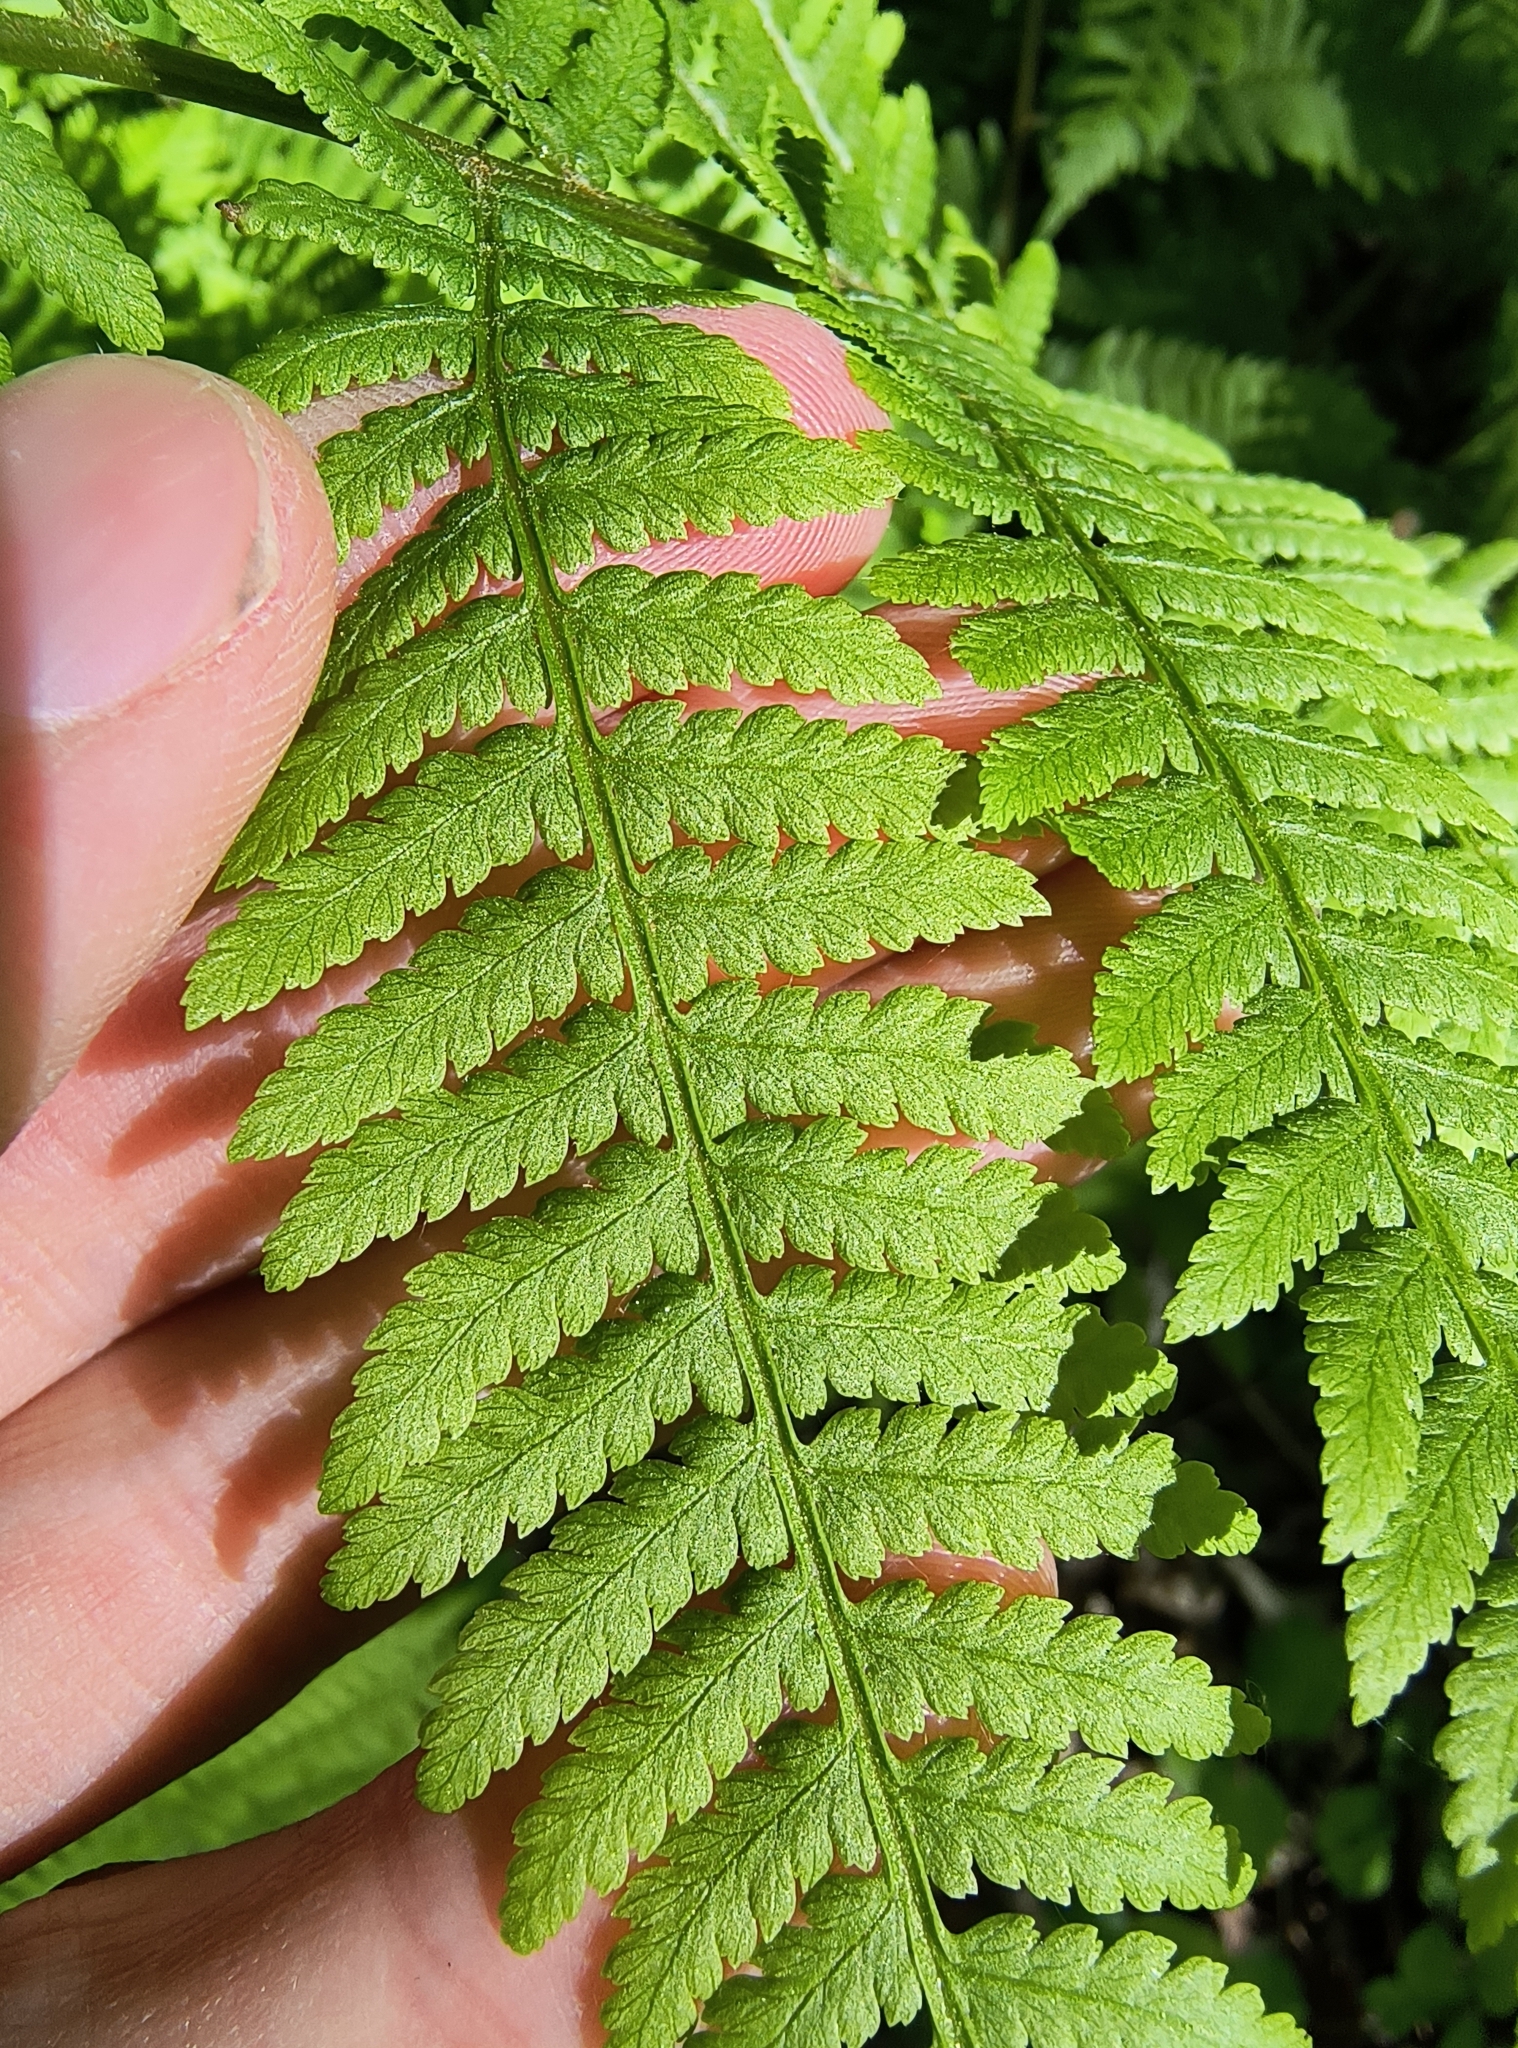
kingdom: Plantae
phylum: Tracheophyta
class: Polypodiopsida
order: Polypodiales
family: Athyriaceae
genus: Athyrium
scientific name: Athyrium angustum
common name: Northern lady fern
